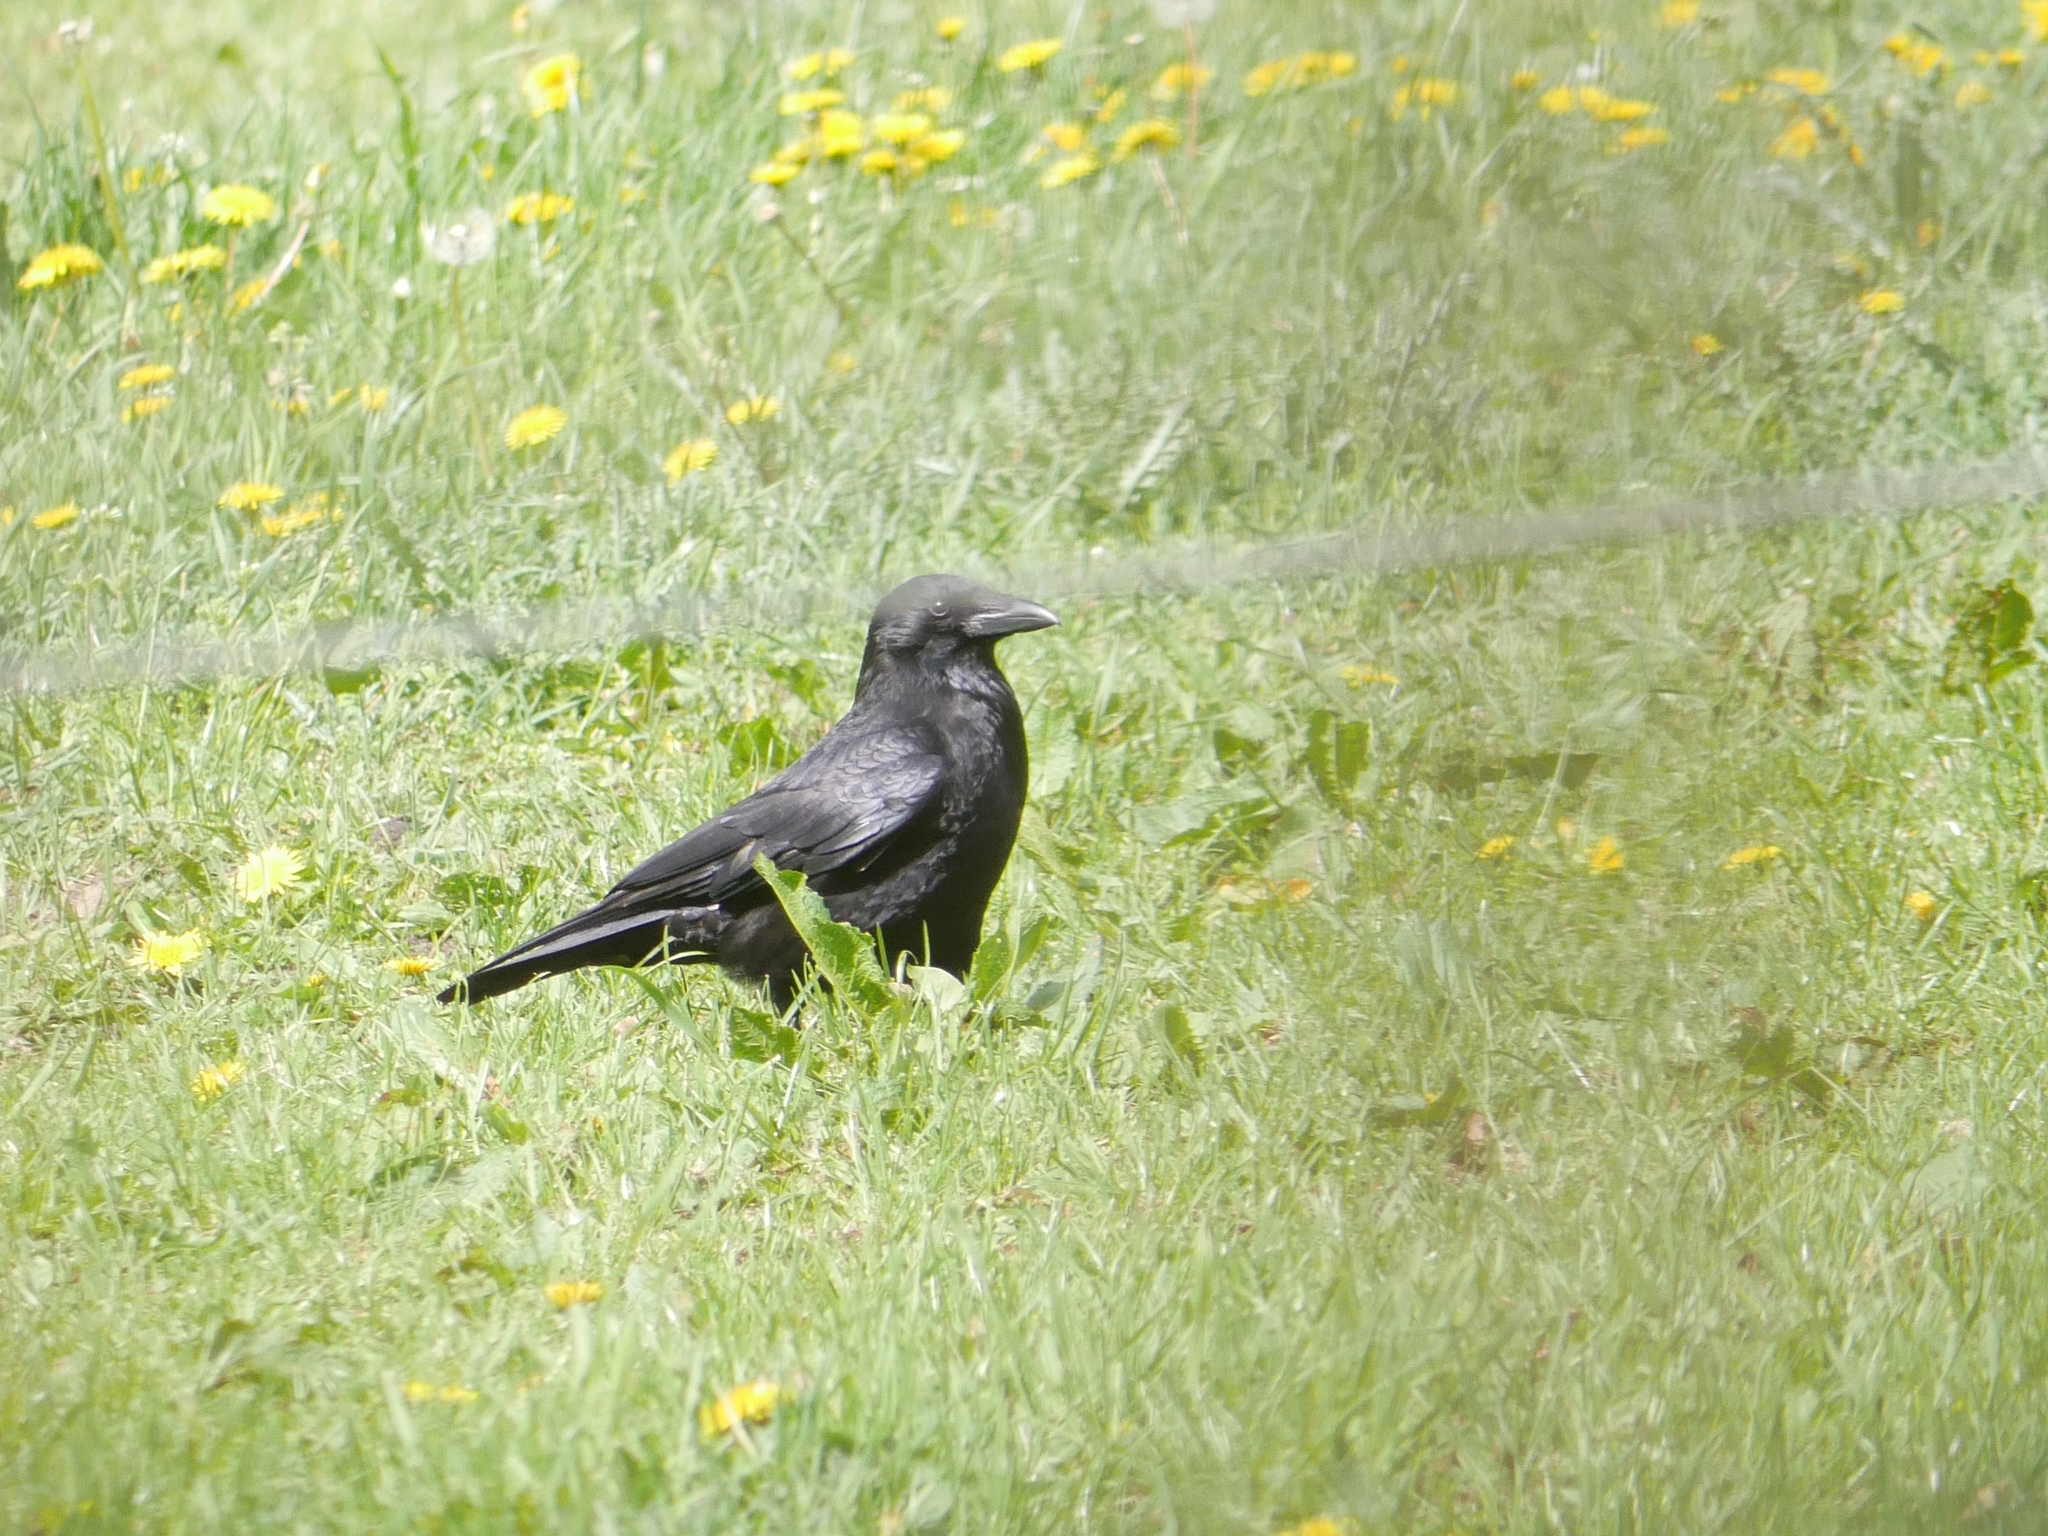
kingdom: Animalia
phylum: Chordata
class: Aves
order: Passeriformes
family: Corvidae
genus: Corvus
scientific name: Corvus corone
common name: Carrion crow
